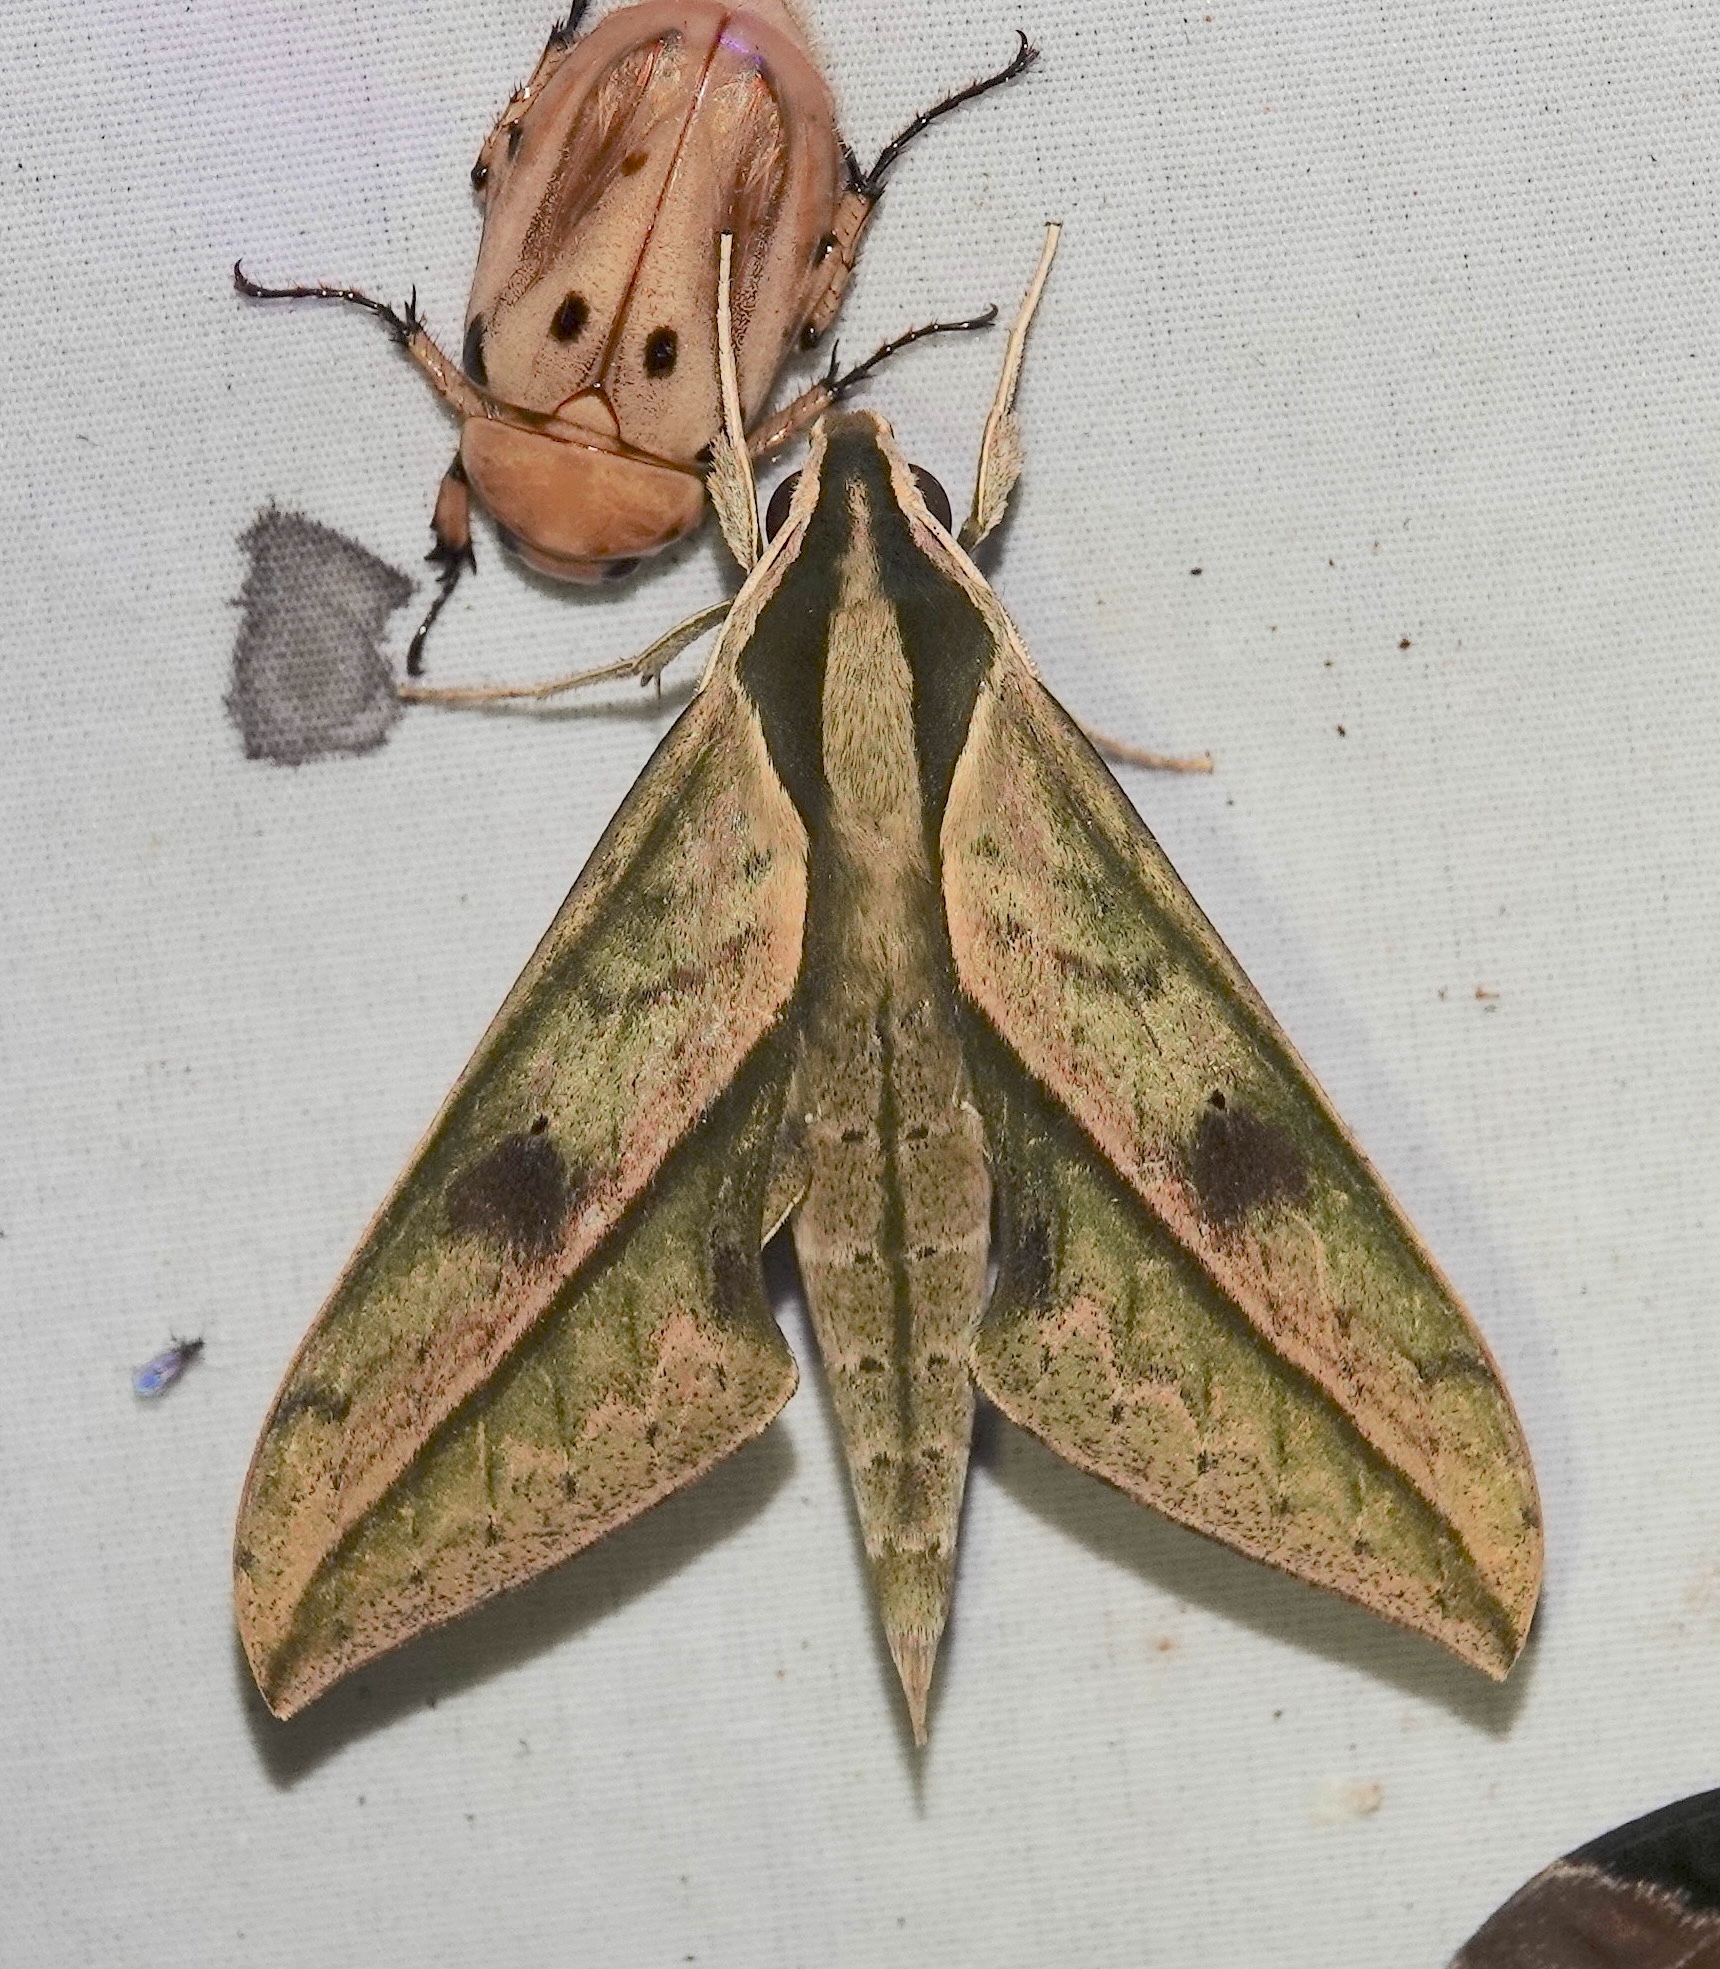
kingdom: Animalia
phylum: Arthropoda
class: Insecta
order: Lepidoptera
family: Sphingidae
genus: Xylophanes
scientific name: Xylophanes docilis
